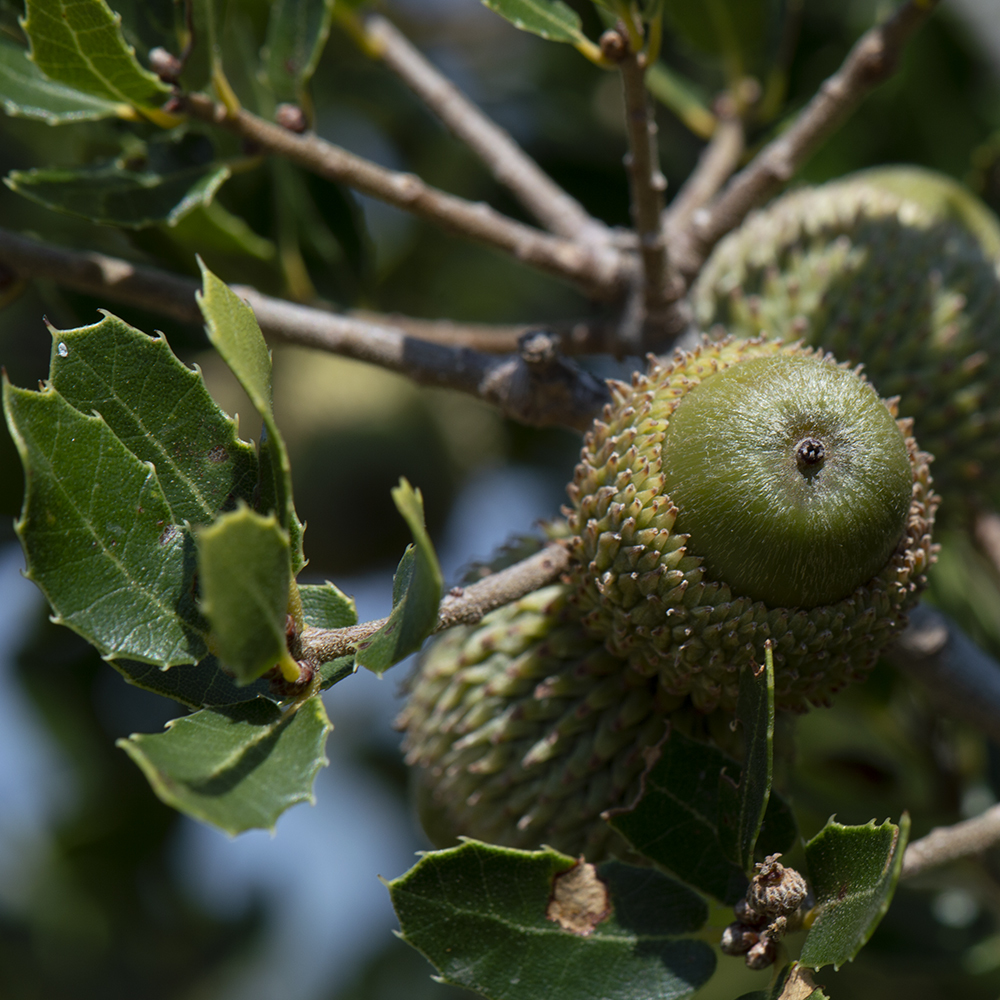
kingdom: Plantae
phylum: Tracheophyta
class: Magnoliopsida
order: Fagales
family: Fagaceae
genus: Quercus
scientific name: Quercus coccifera
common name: Kermes oak
